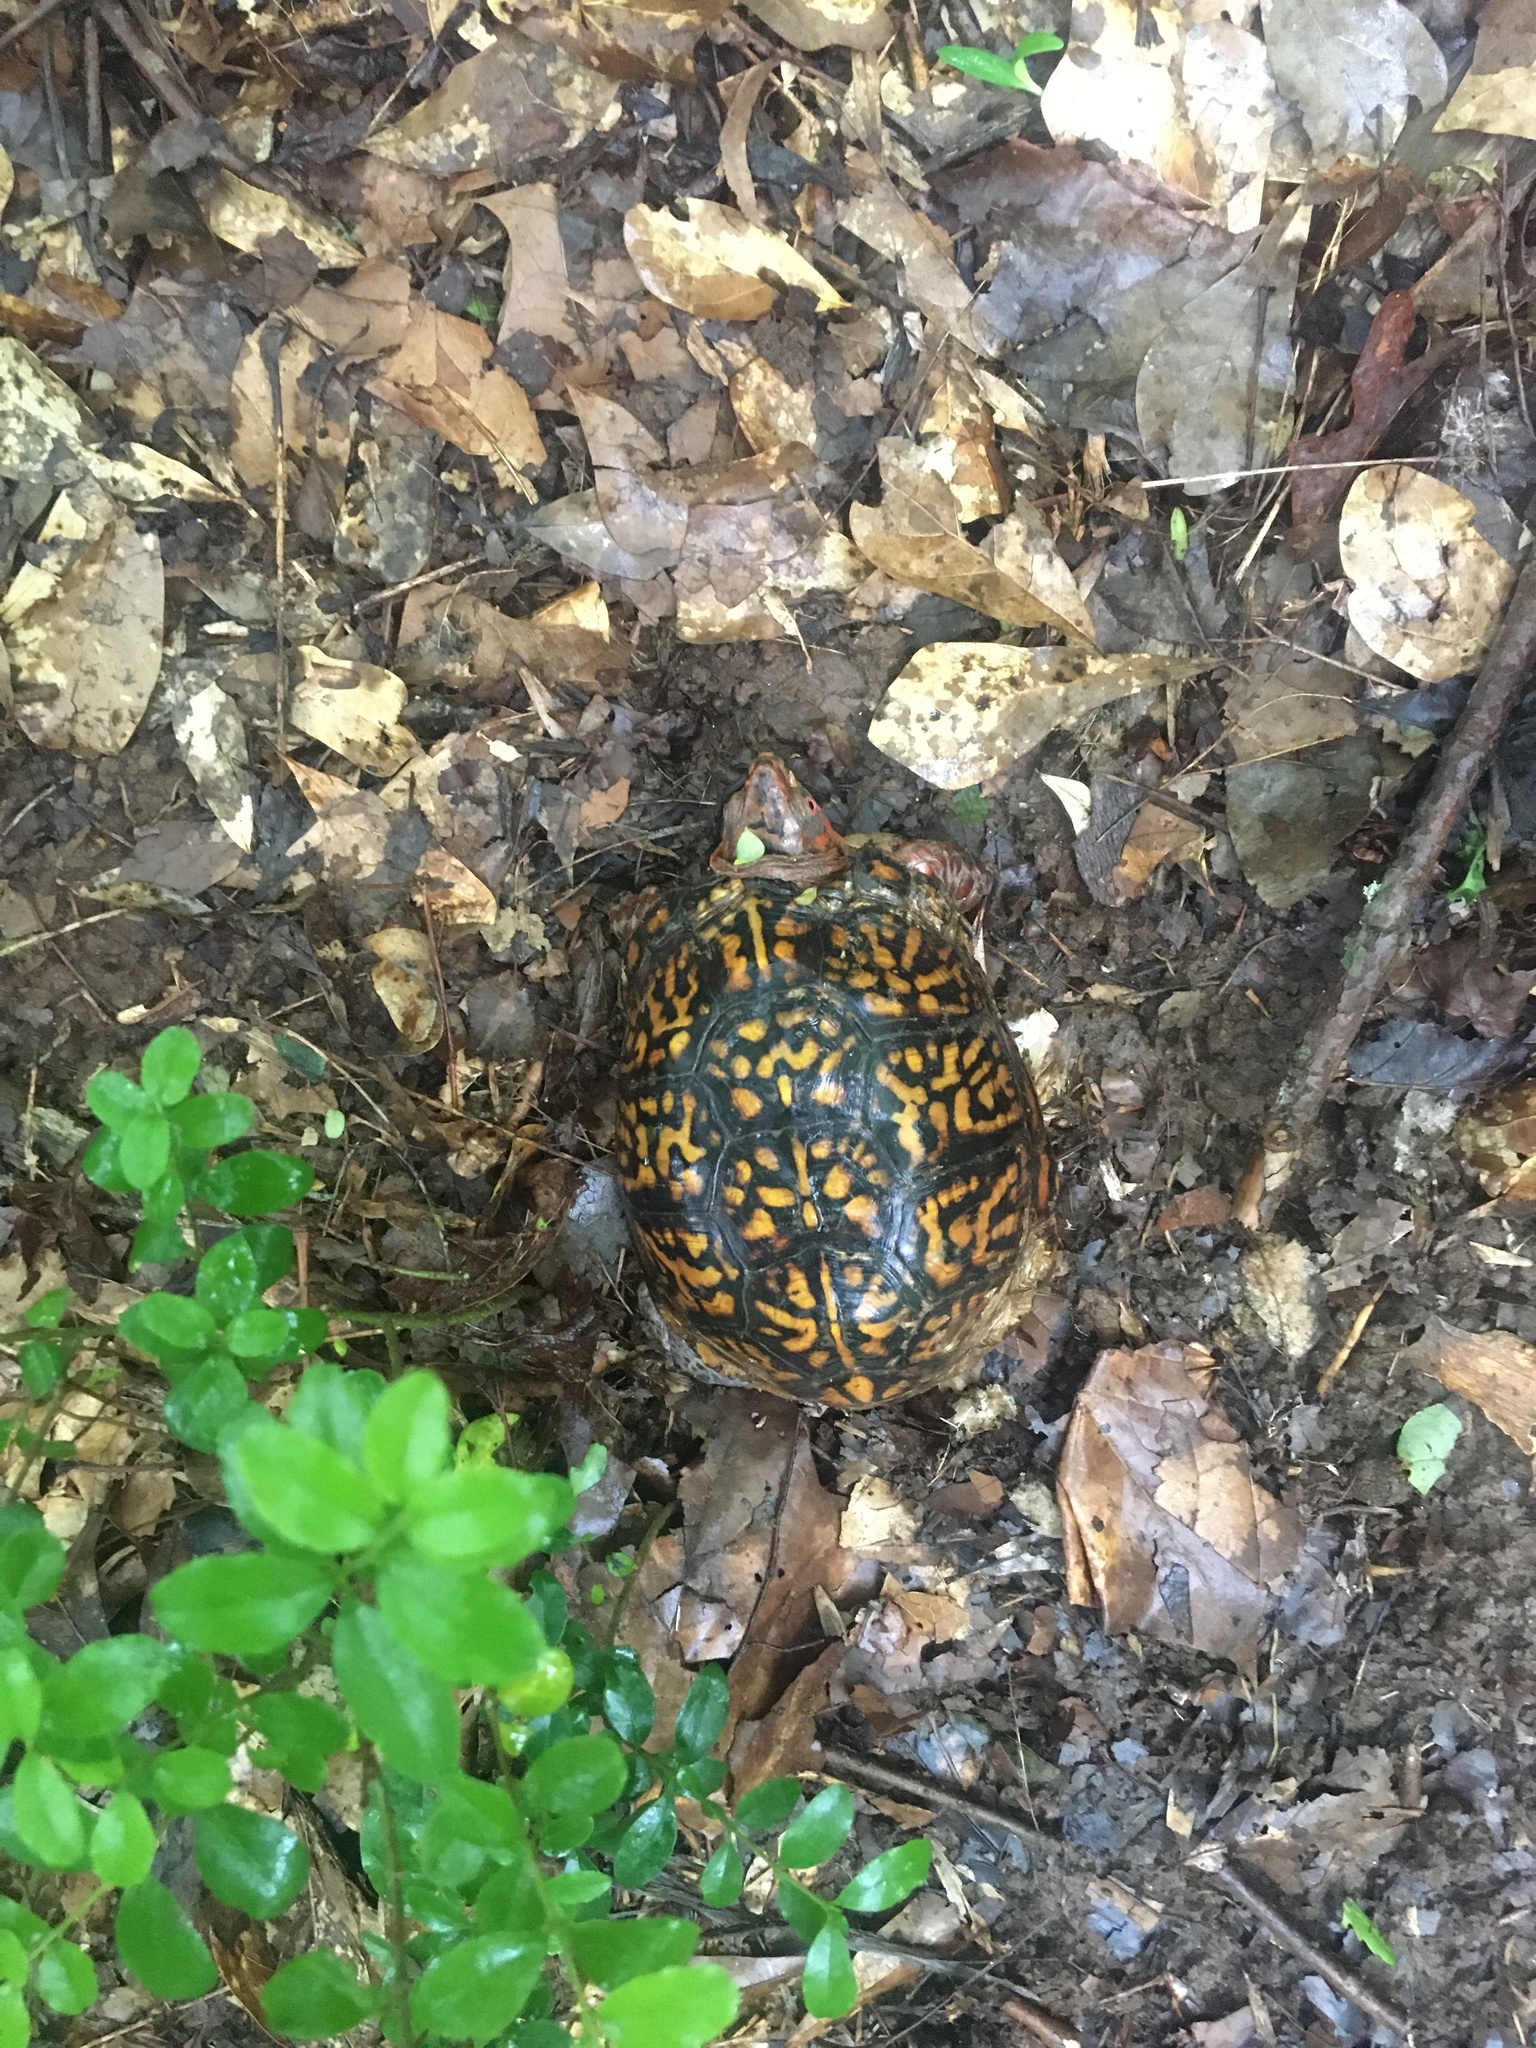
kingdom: Animalia
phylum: Chordata
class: Testudines
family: Emydidae
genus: Terrapene
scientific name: Terrapene carolina
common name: Common box turtle
